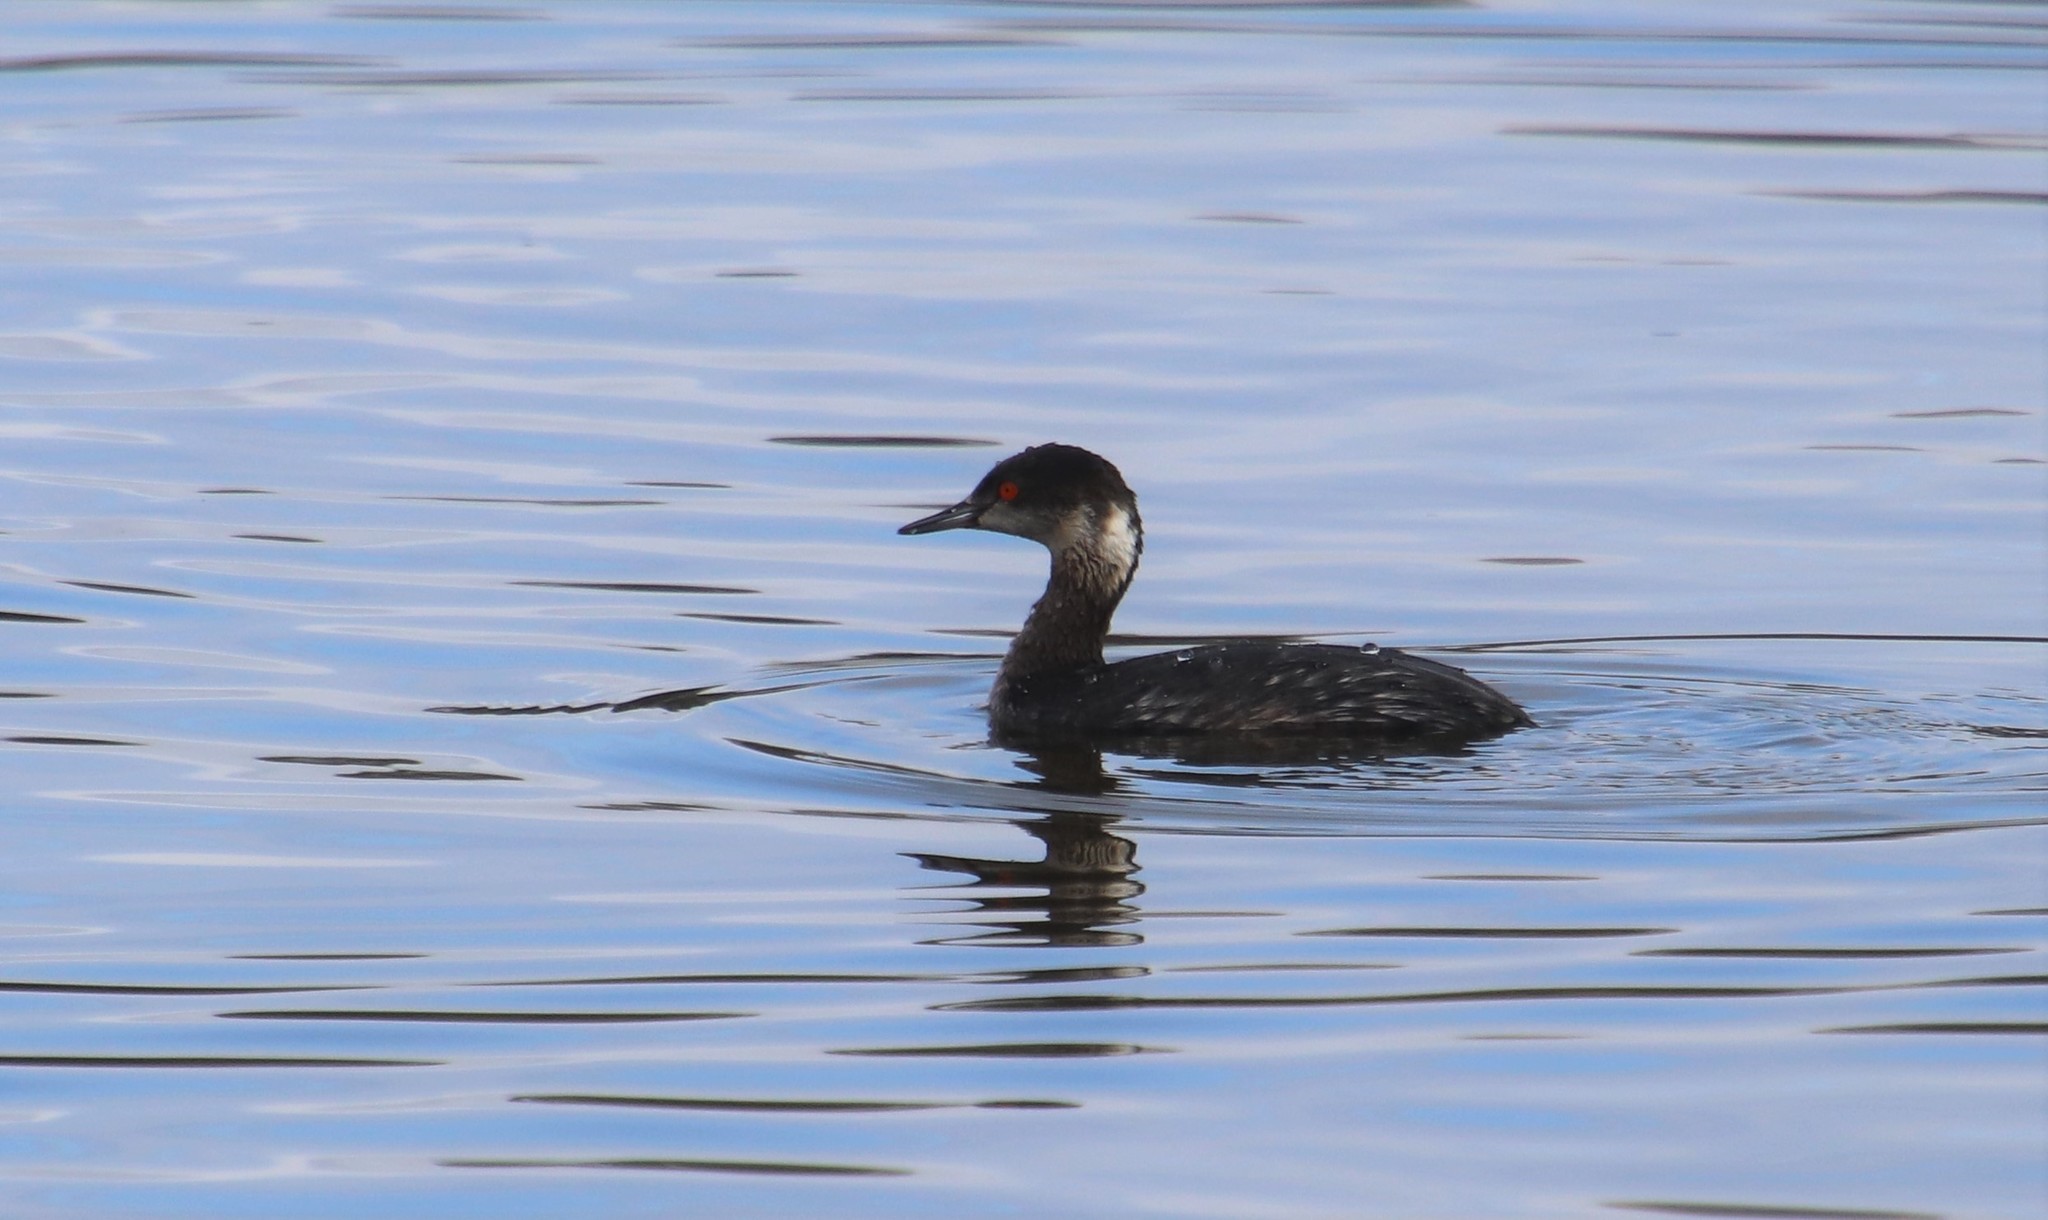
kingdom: Animalia
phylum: Chordata
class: Aves
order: Podicipediformes
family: Podicipedidae
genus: Podiceps
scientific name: Podiceps nigricollis
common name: Black-necked grebe
